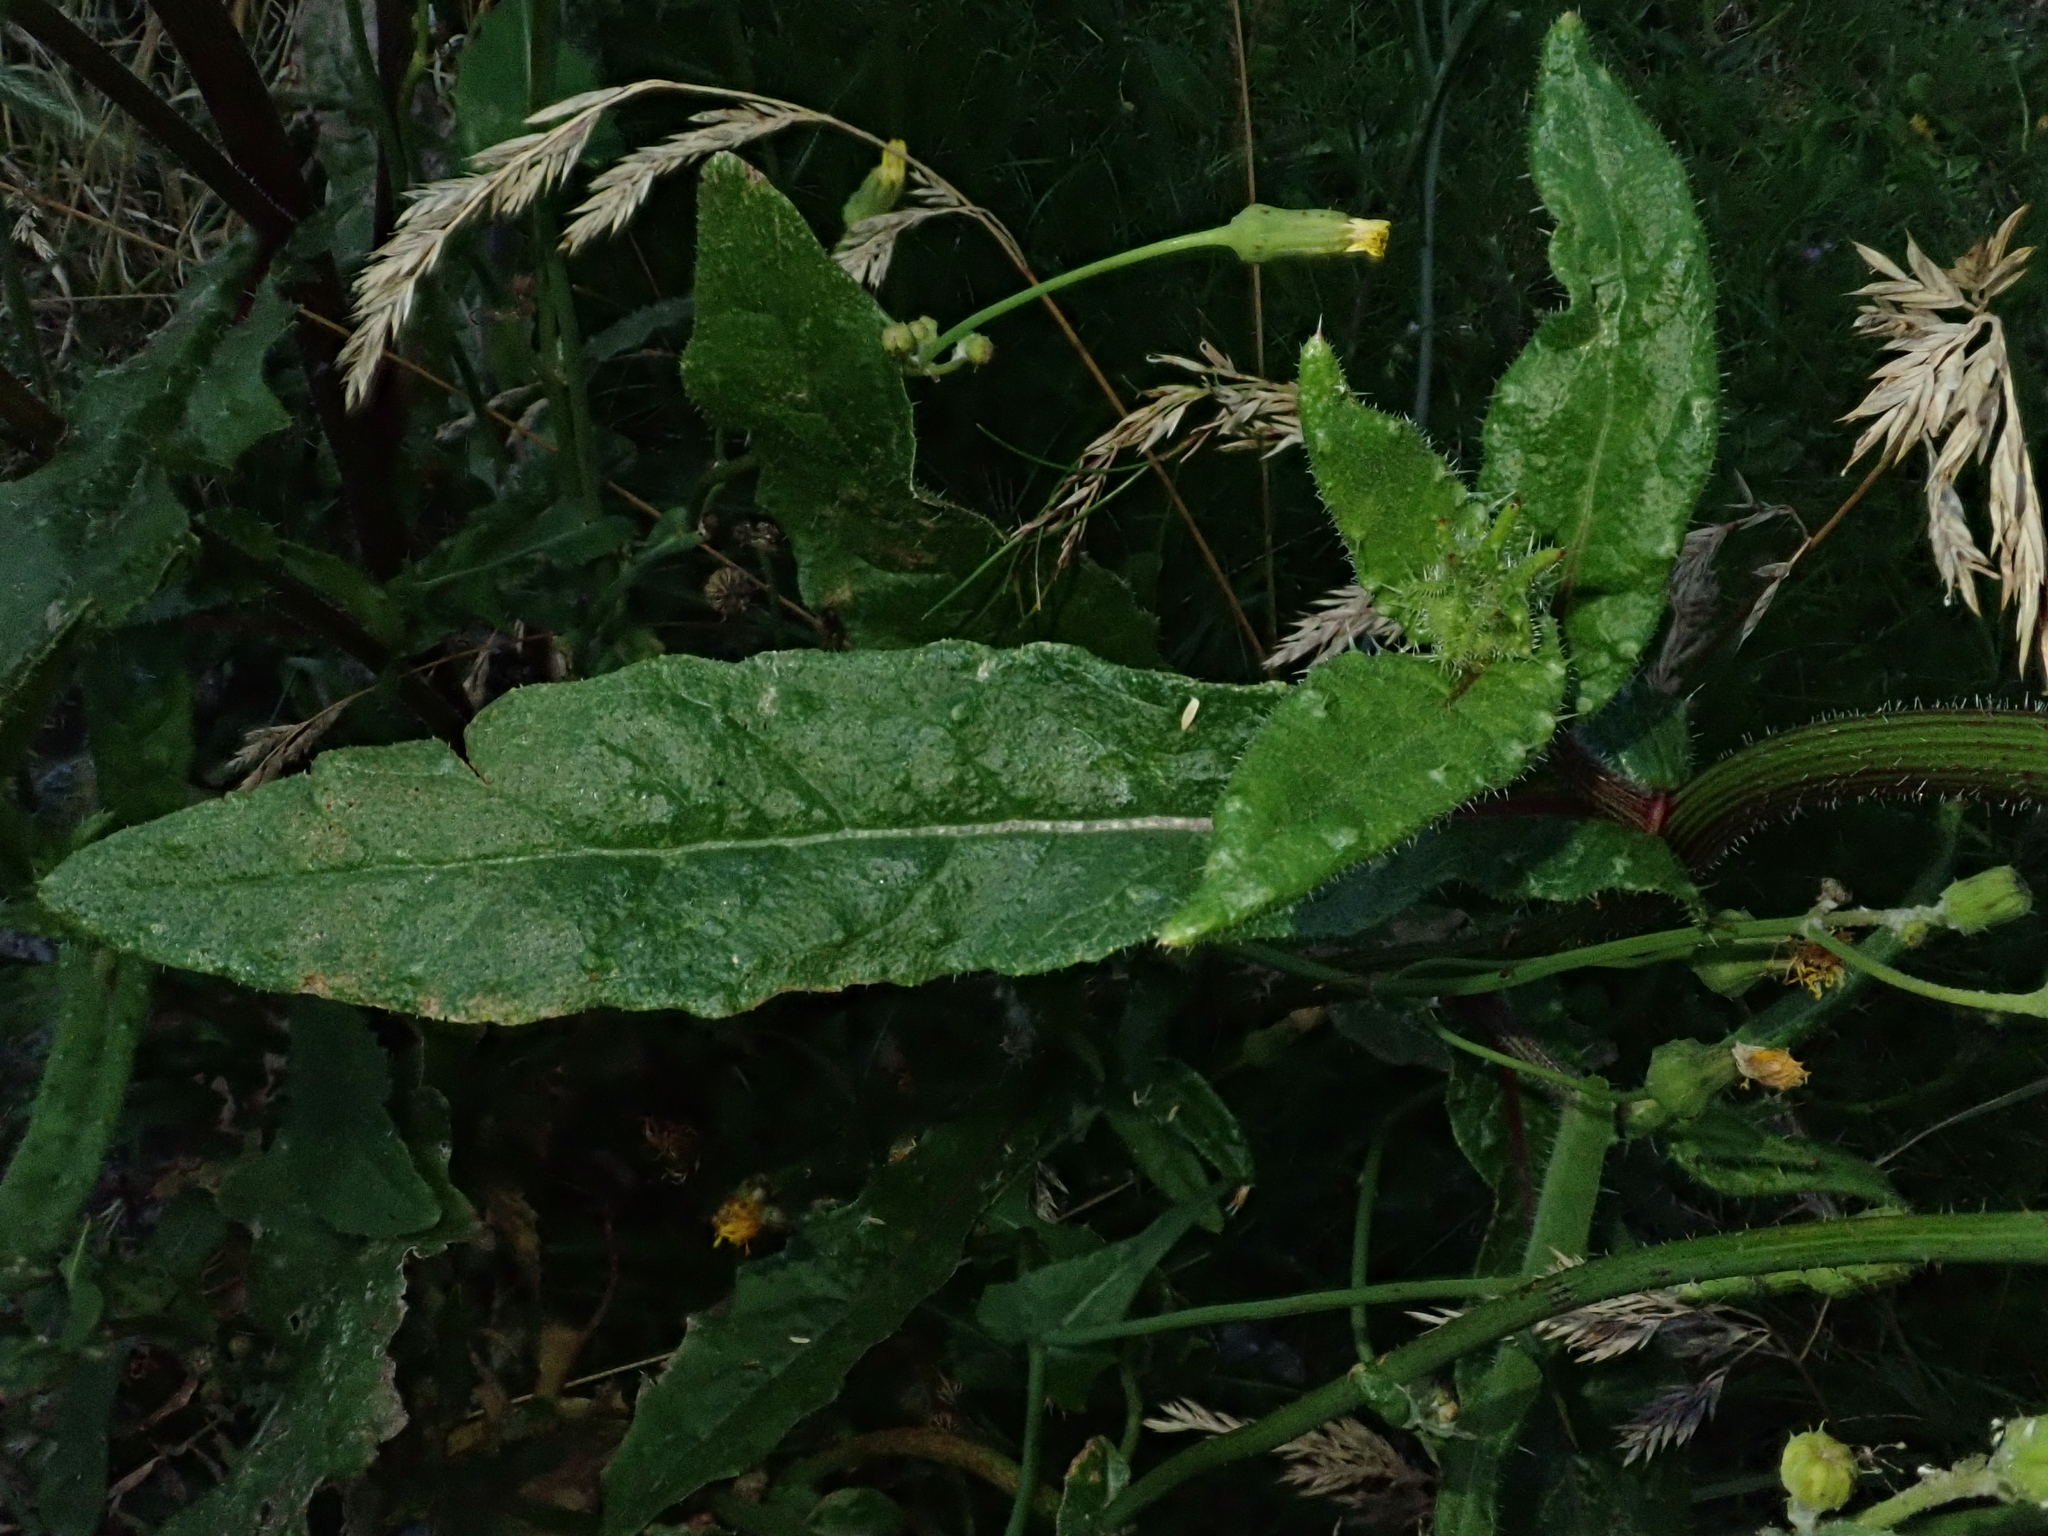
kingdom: Plantae
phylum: Tracheophyta
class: Magnoliopsida
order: Asterales
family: Asteraceae
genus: Helminthotheca
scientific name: Helminthotheca echioides
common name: Ox-tongue
